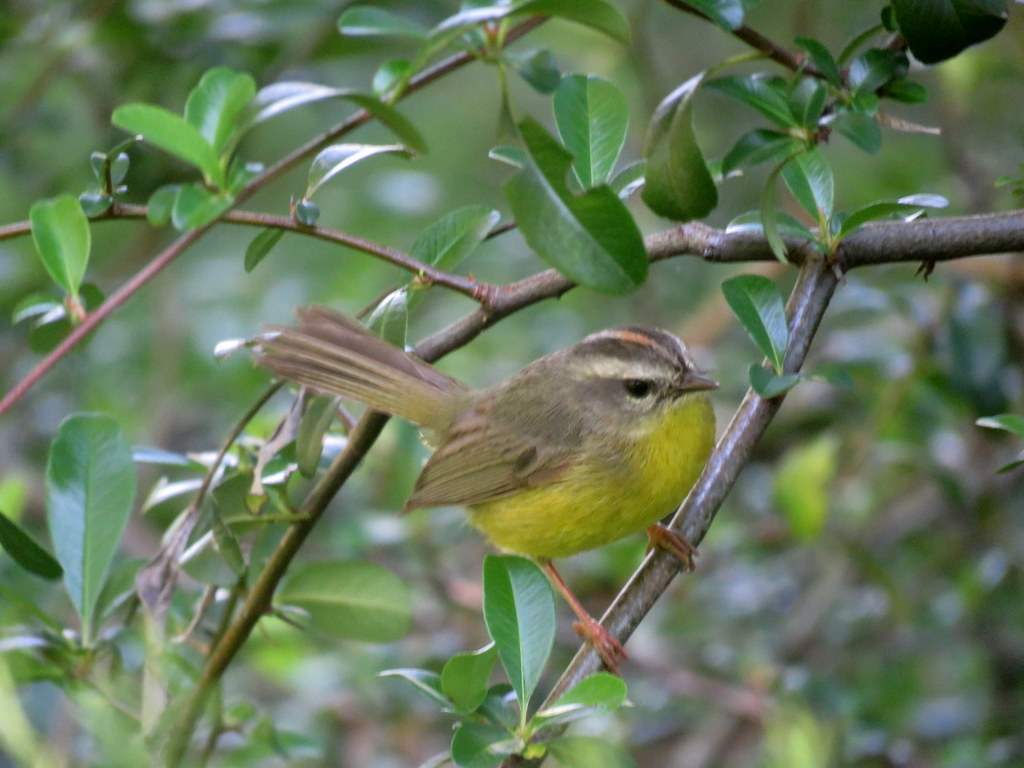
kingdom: Animalia
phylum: Chordata
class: Aves
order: Passeriformes
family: Parulidae
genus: Basileuterus
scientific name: Basileuterus culicivorus
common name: Golden-crowned warbler
